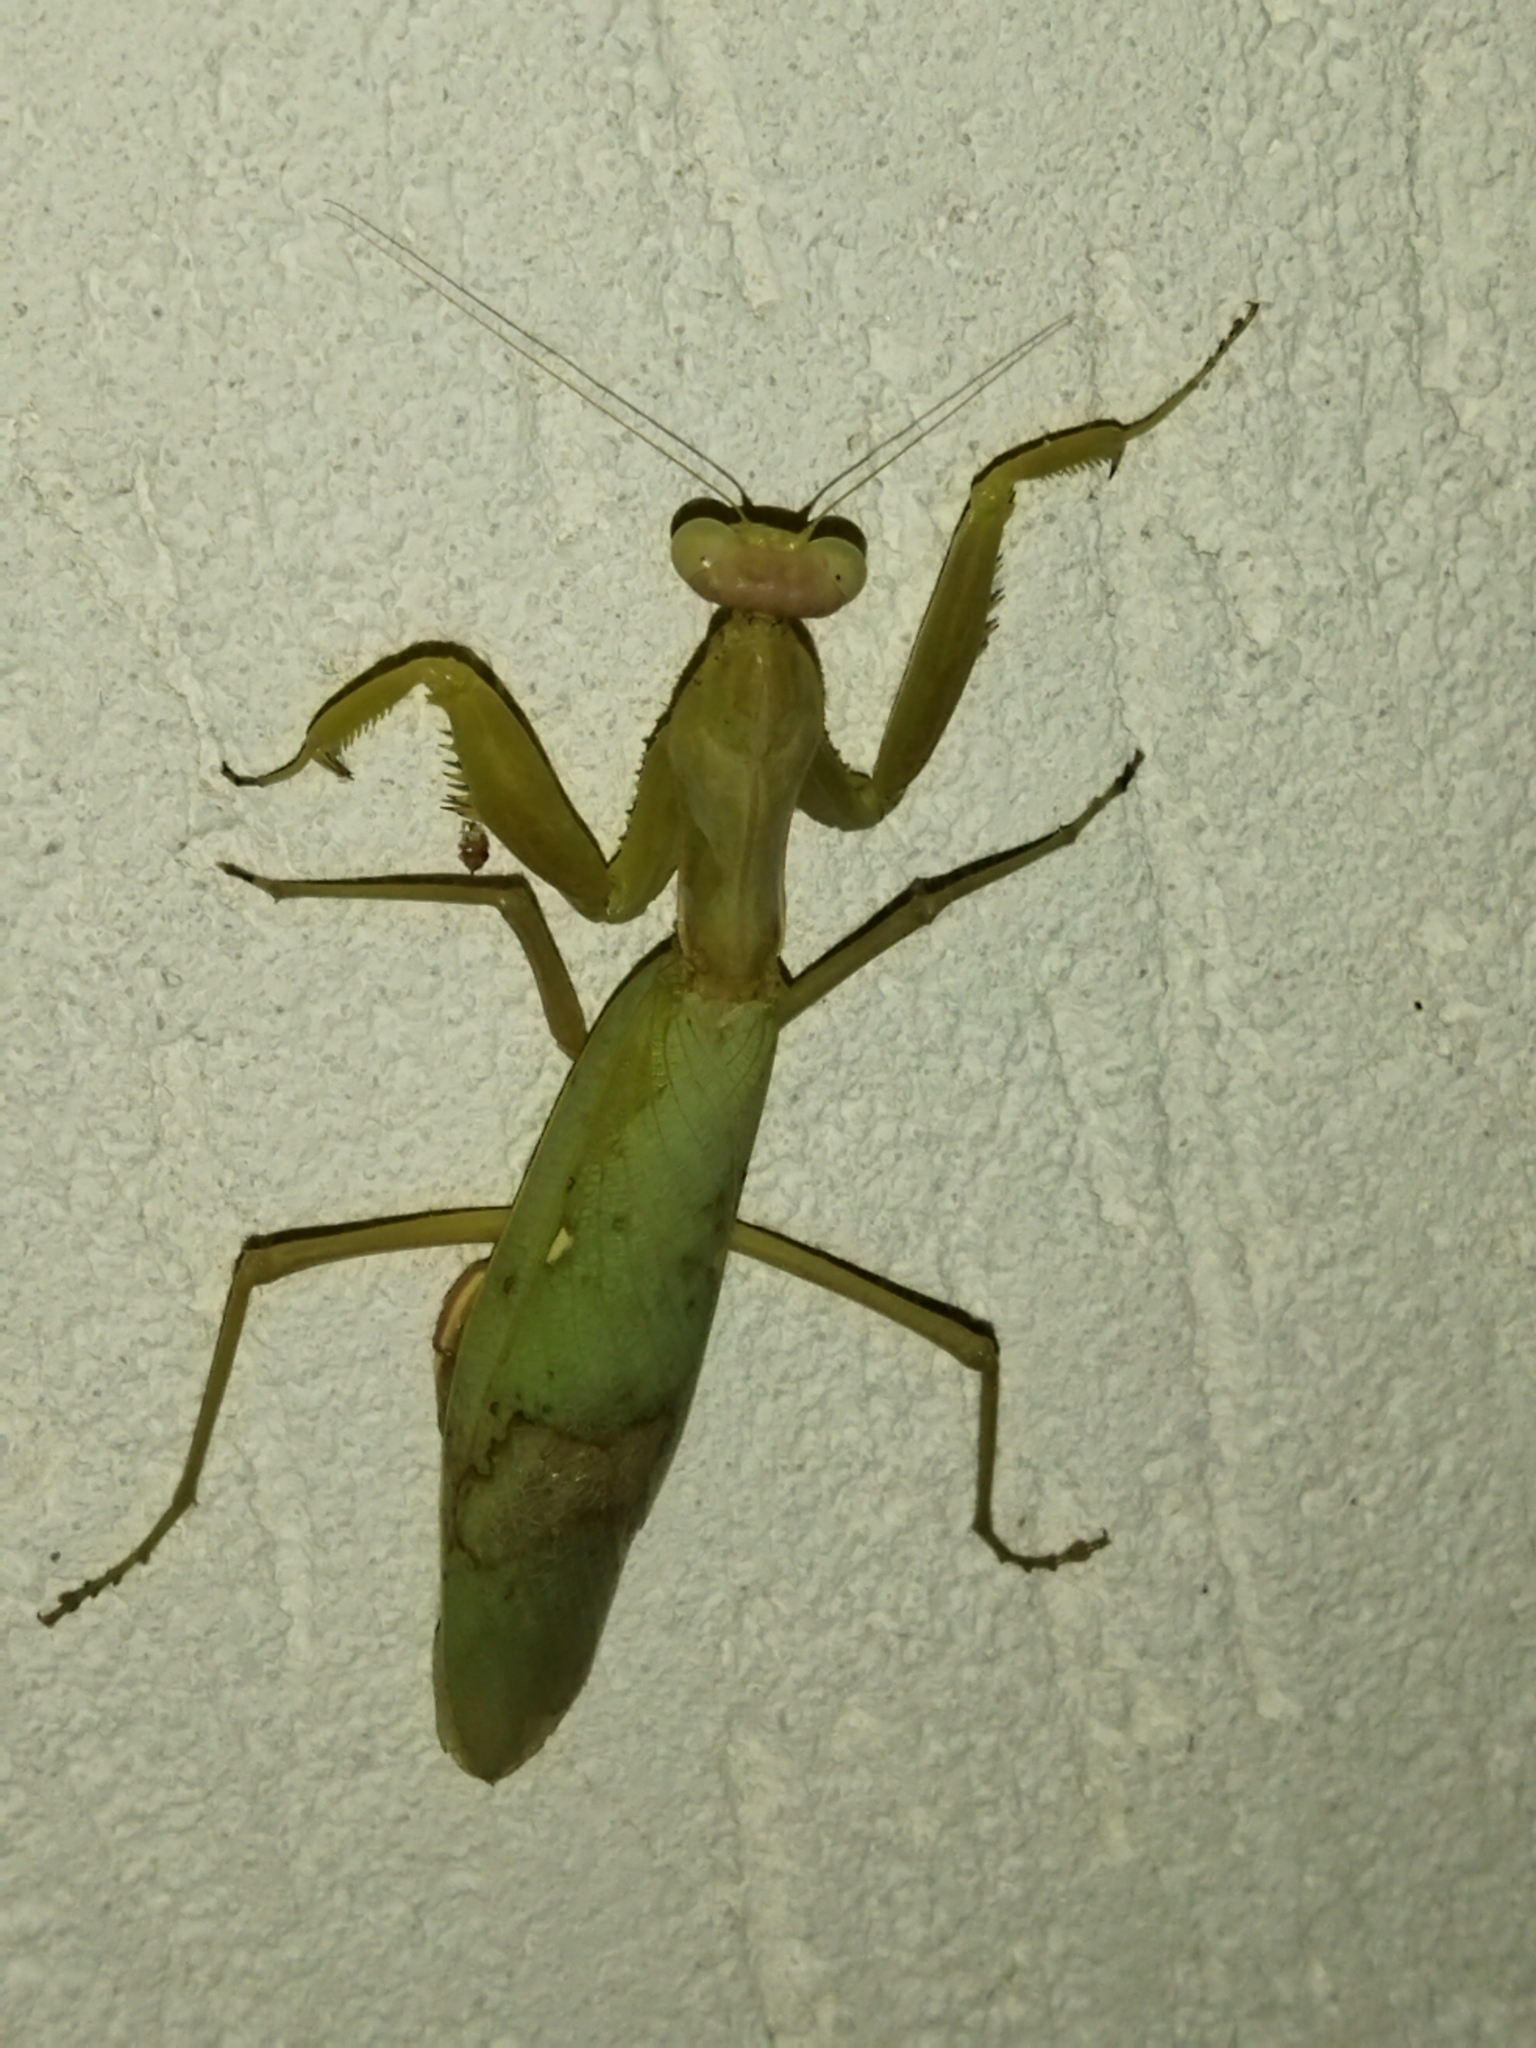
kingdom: Animalia
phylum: Arthropoda
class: Insecta
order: Mantodea
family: Mantidae
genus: Hierodula
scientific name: Hierodula transcaucasica
